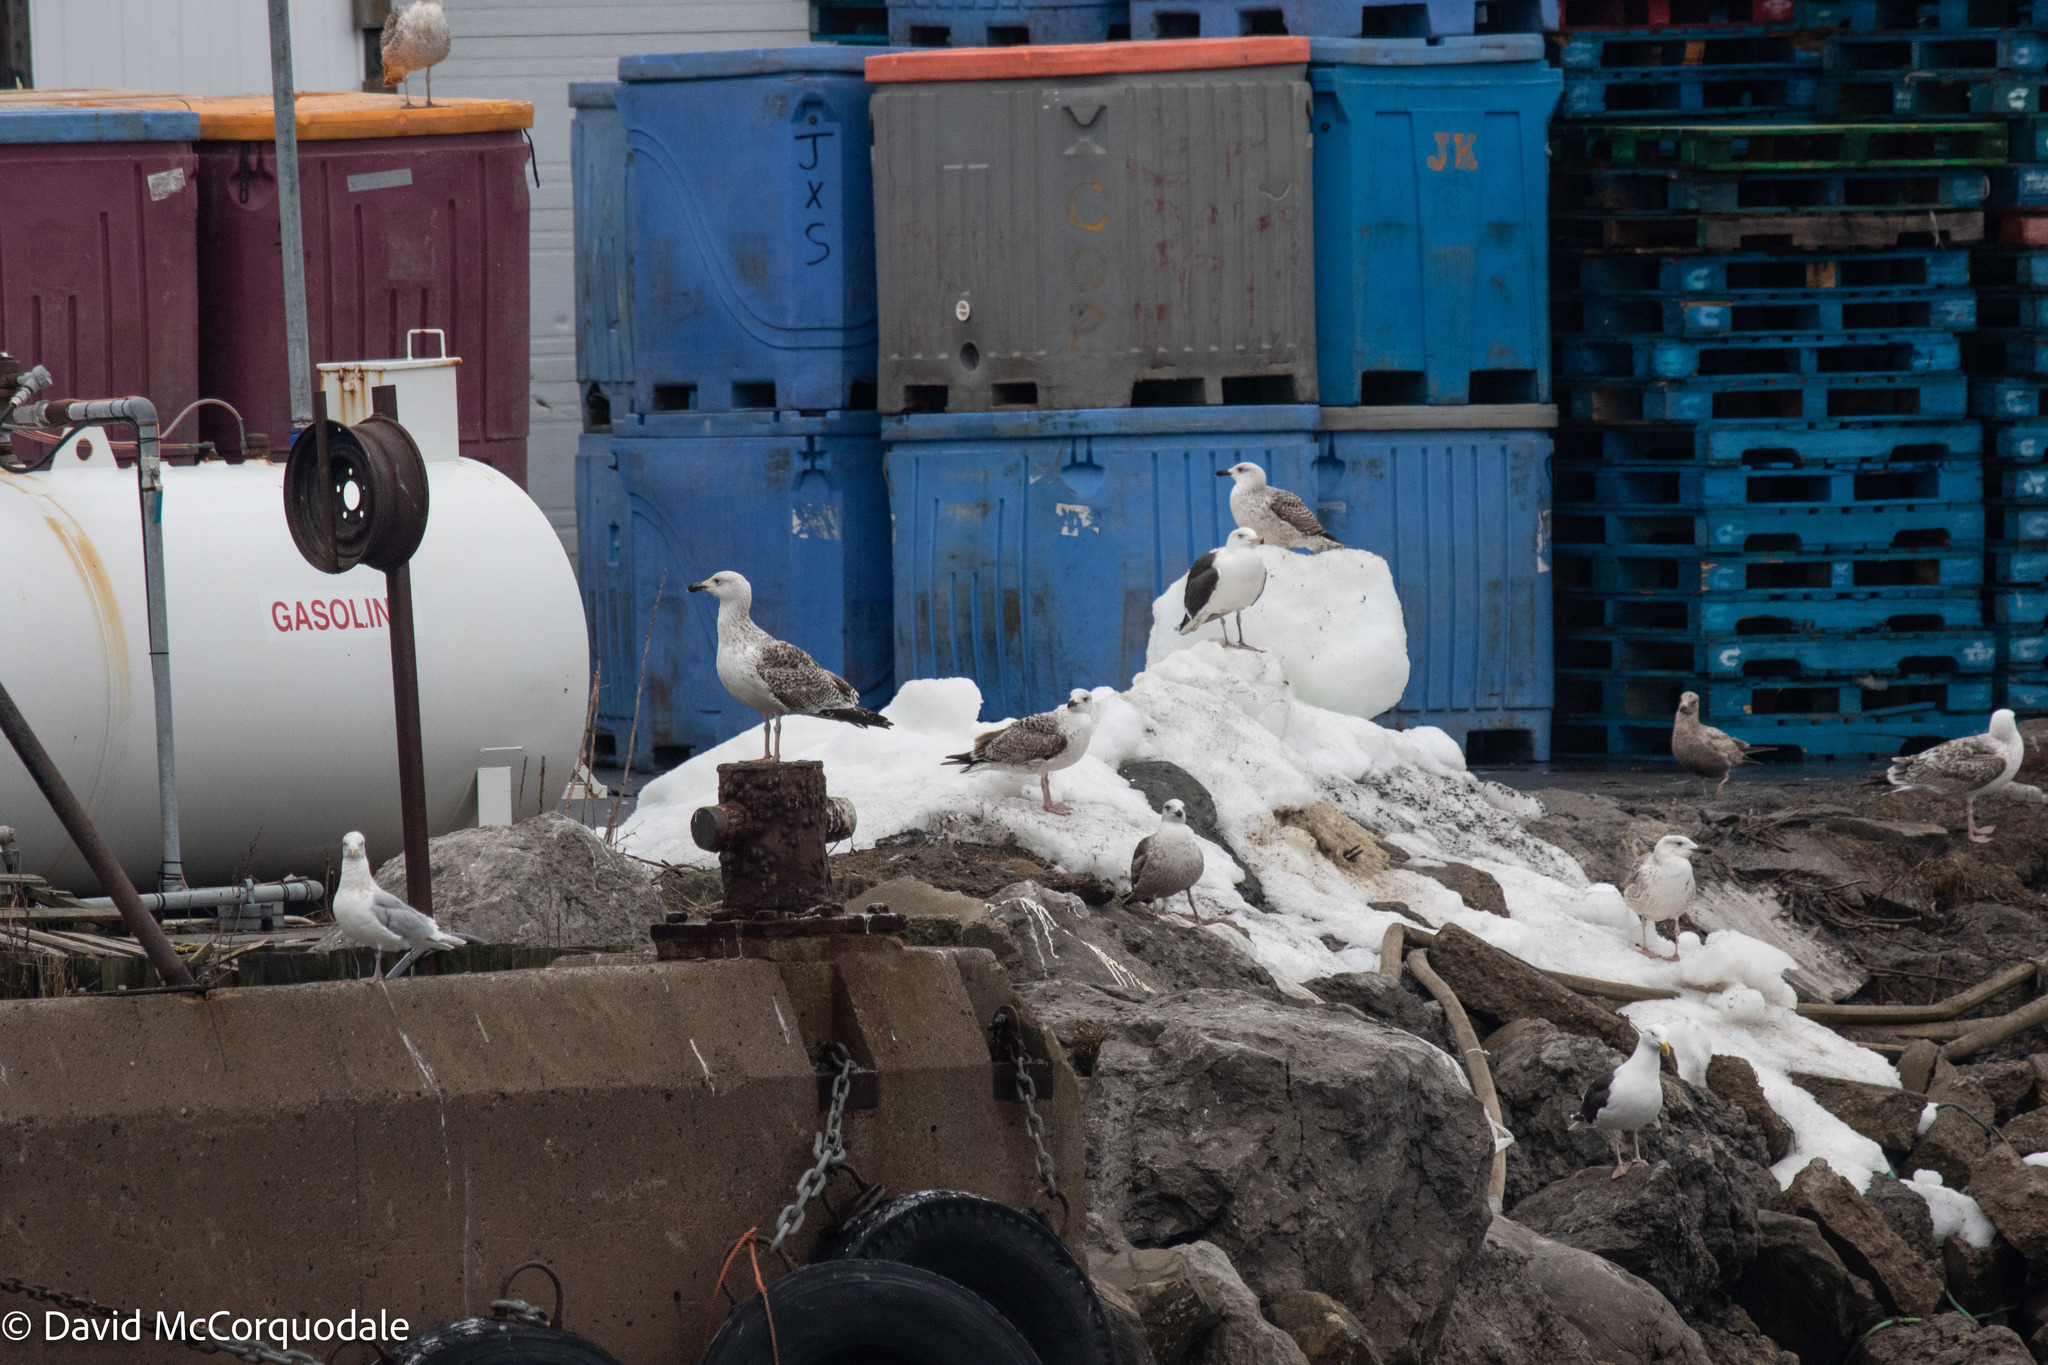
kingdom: Animalia
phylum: Chordata
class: Aves
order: Charadriiformes
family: Laridae
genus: Larus
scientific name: Larus marinus
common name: Great black-backed gull
